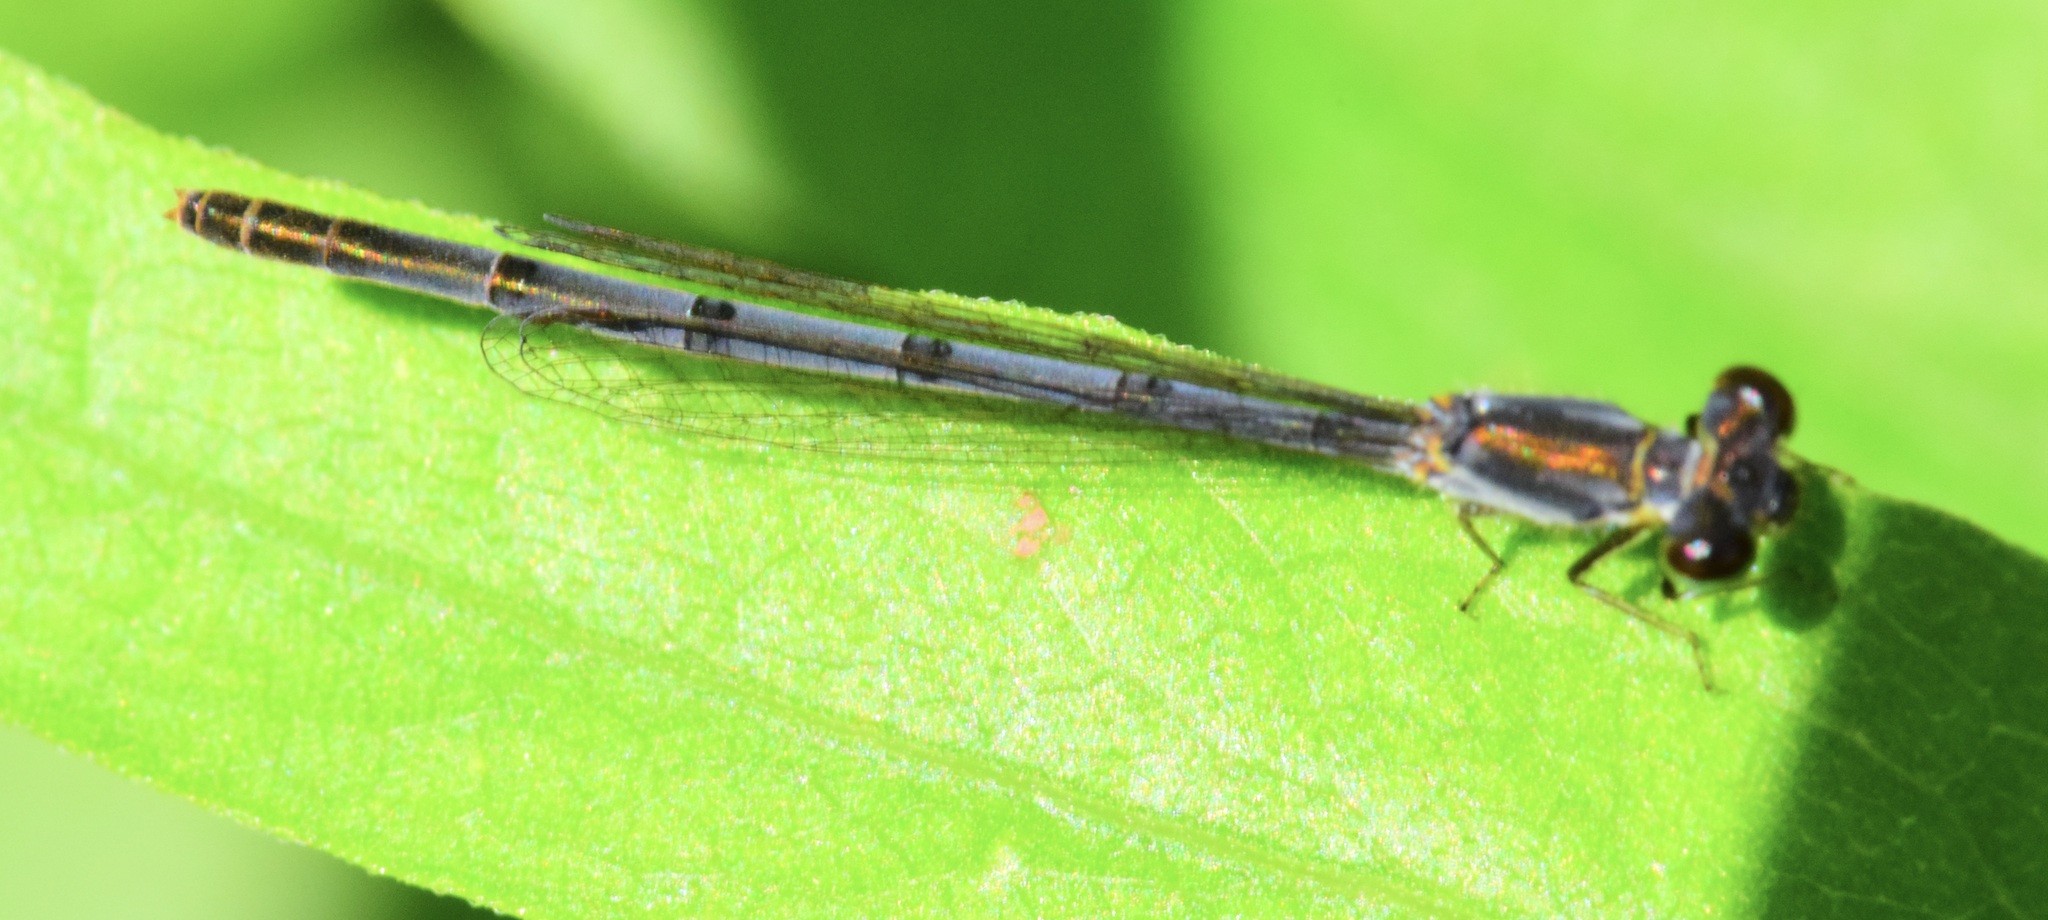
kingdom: Animalia
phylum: Arthropoda
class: Insecta
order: Odonata
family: Coenagrionidae
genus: Ischnura
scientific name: Ischnura posita
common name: Fragile forktail
